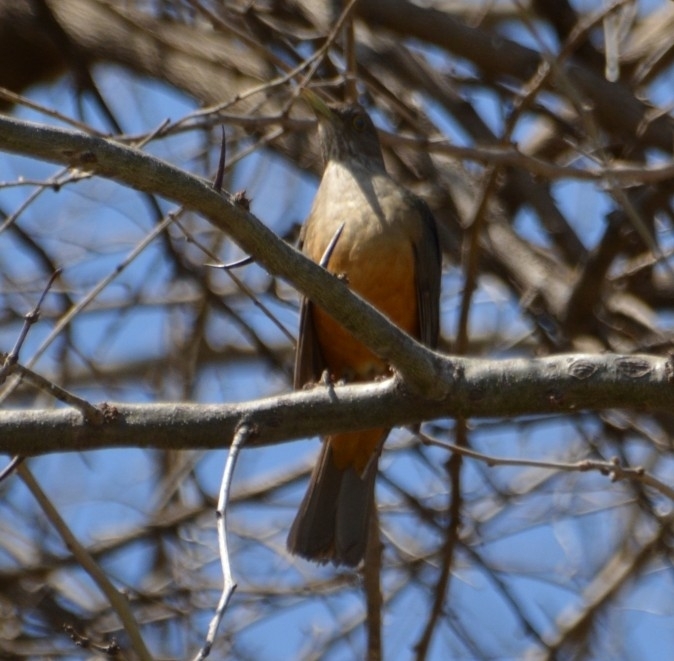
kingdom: Animalia
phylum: Chordata
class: Aves
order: Passeriformes
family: Turdidae
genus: Turdus
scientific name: Turdus rufiventris
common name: Rufous-bellied thrush
